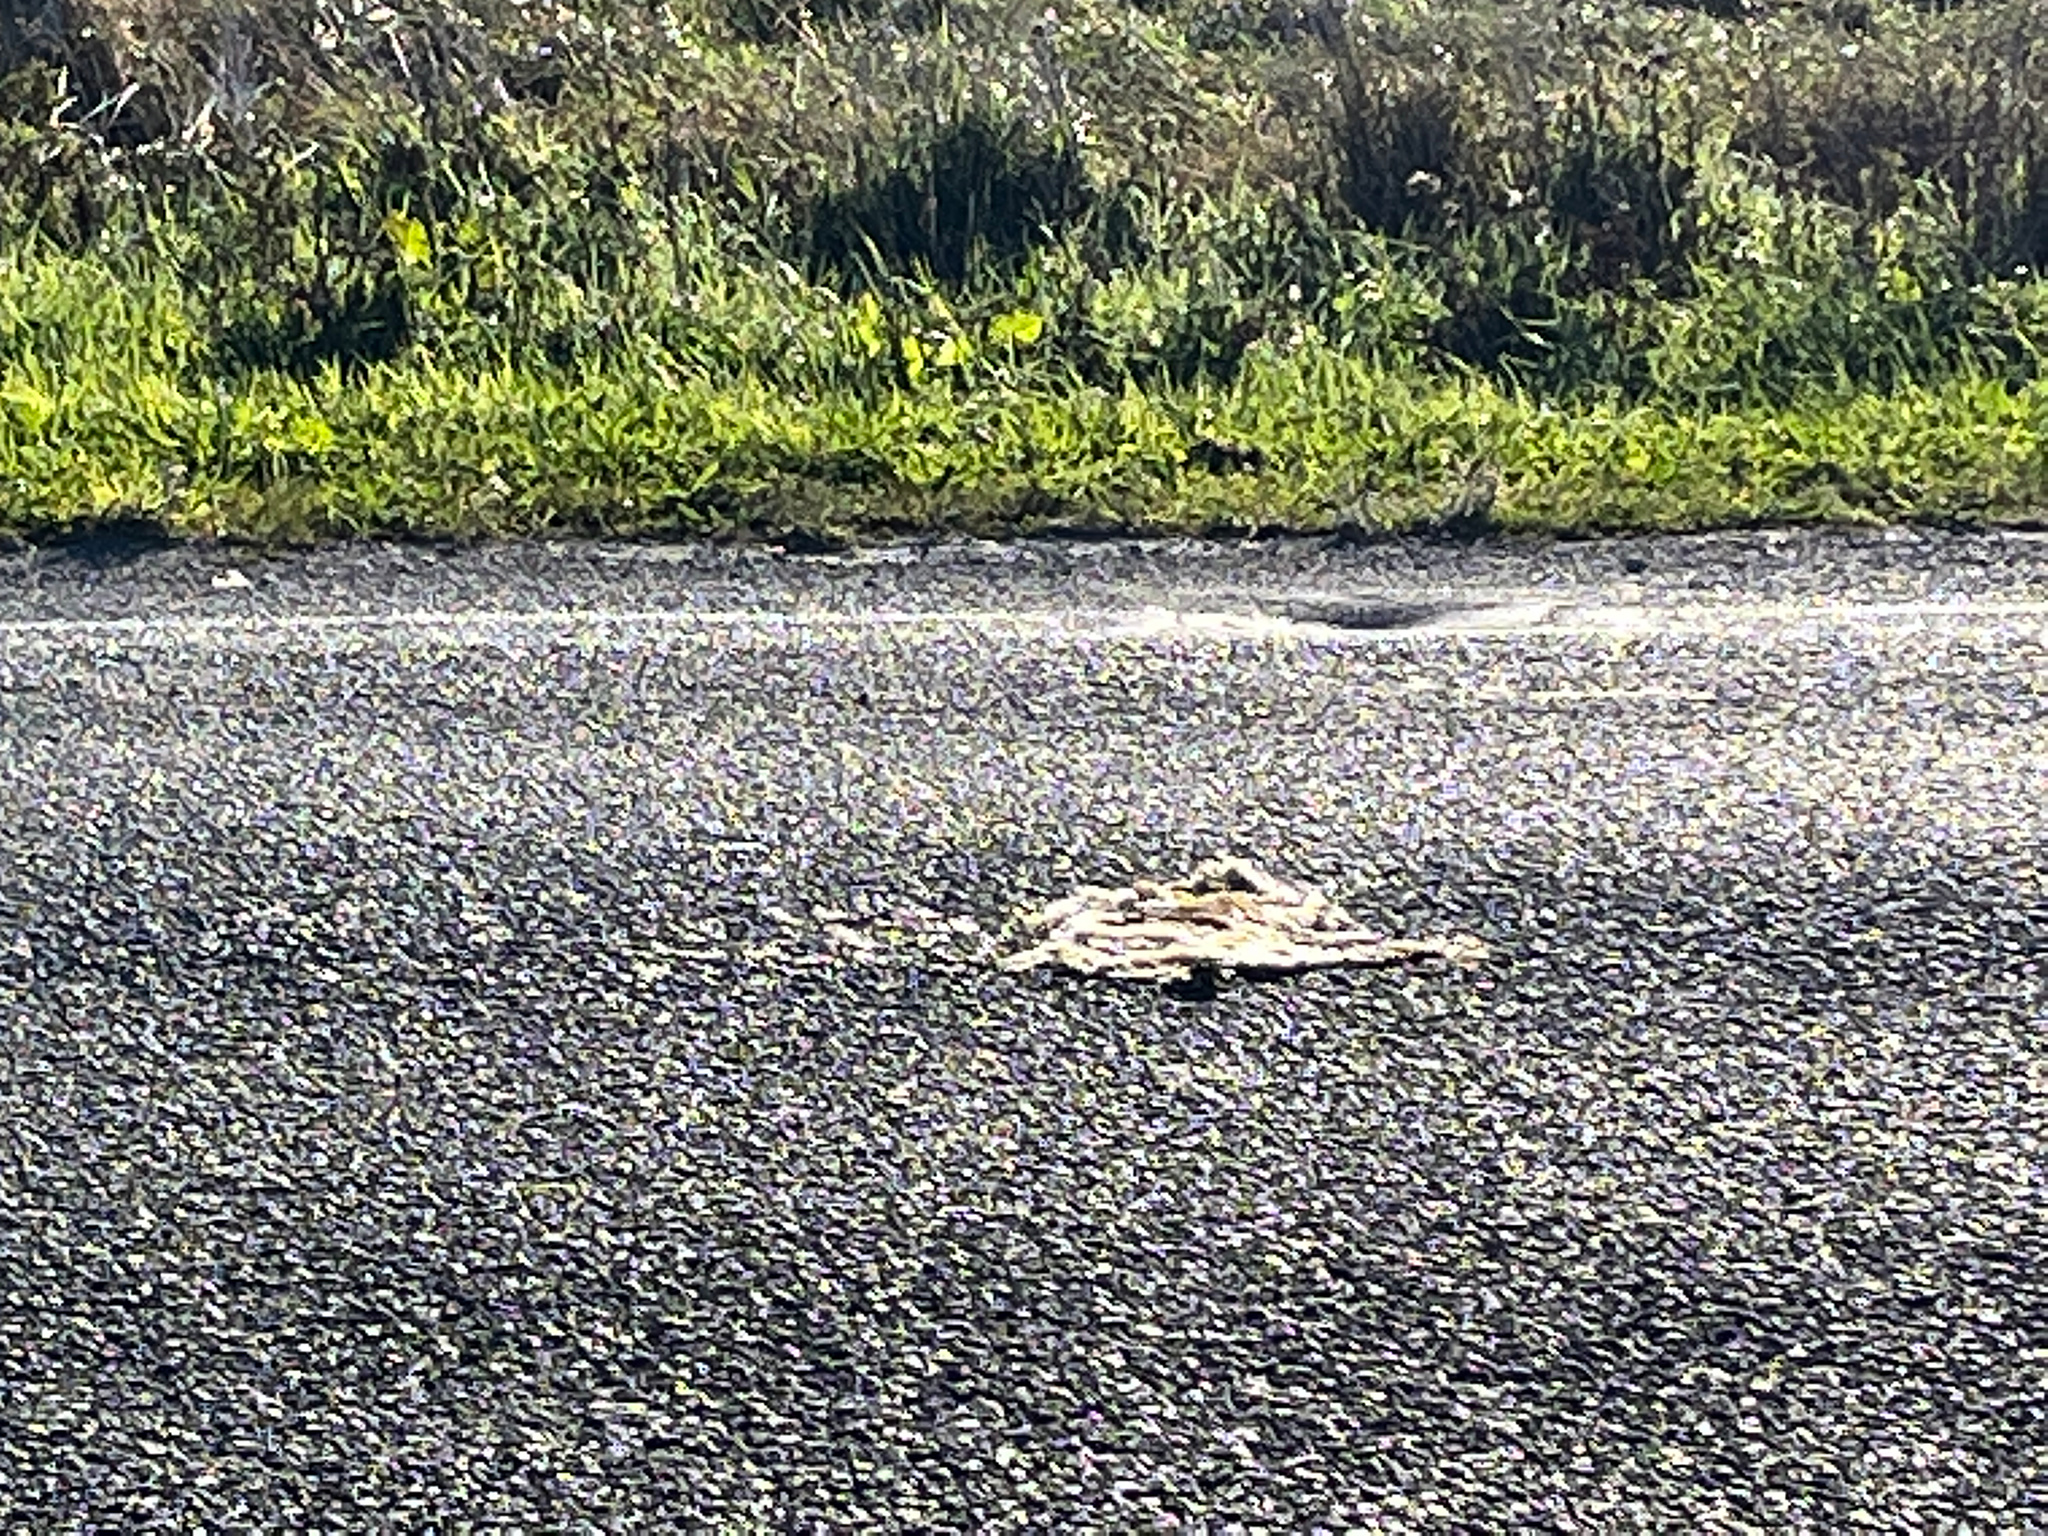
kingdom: Animalia
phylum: Chordata
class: Mammalia
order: Lagomorpha
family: Leporidae
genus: Lepus
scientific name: Lepus europaeus
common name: European hare
